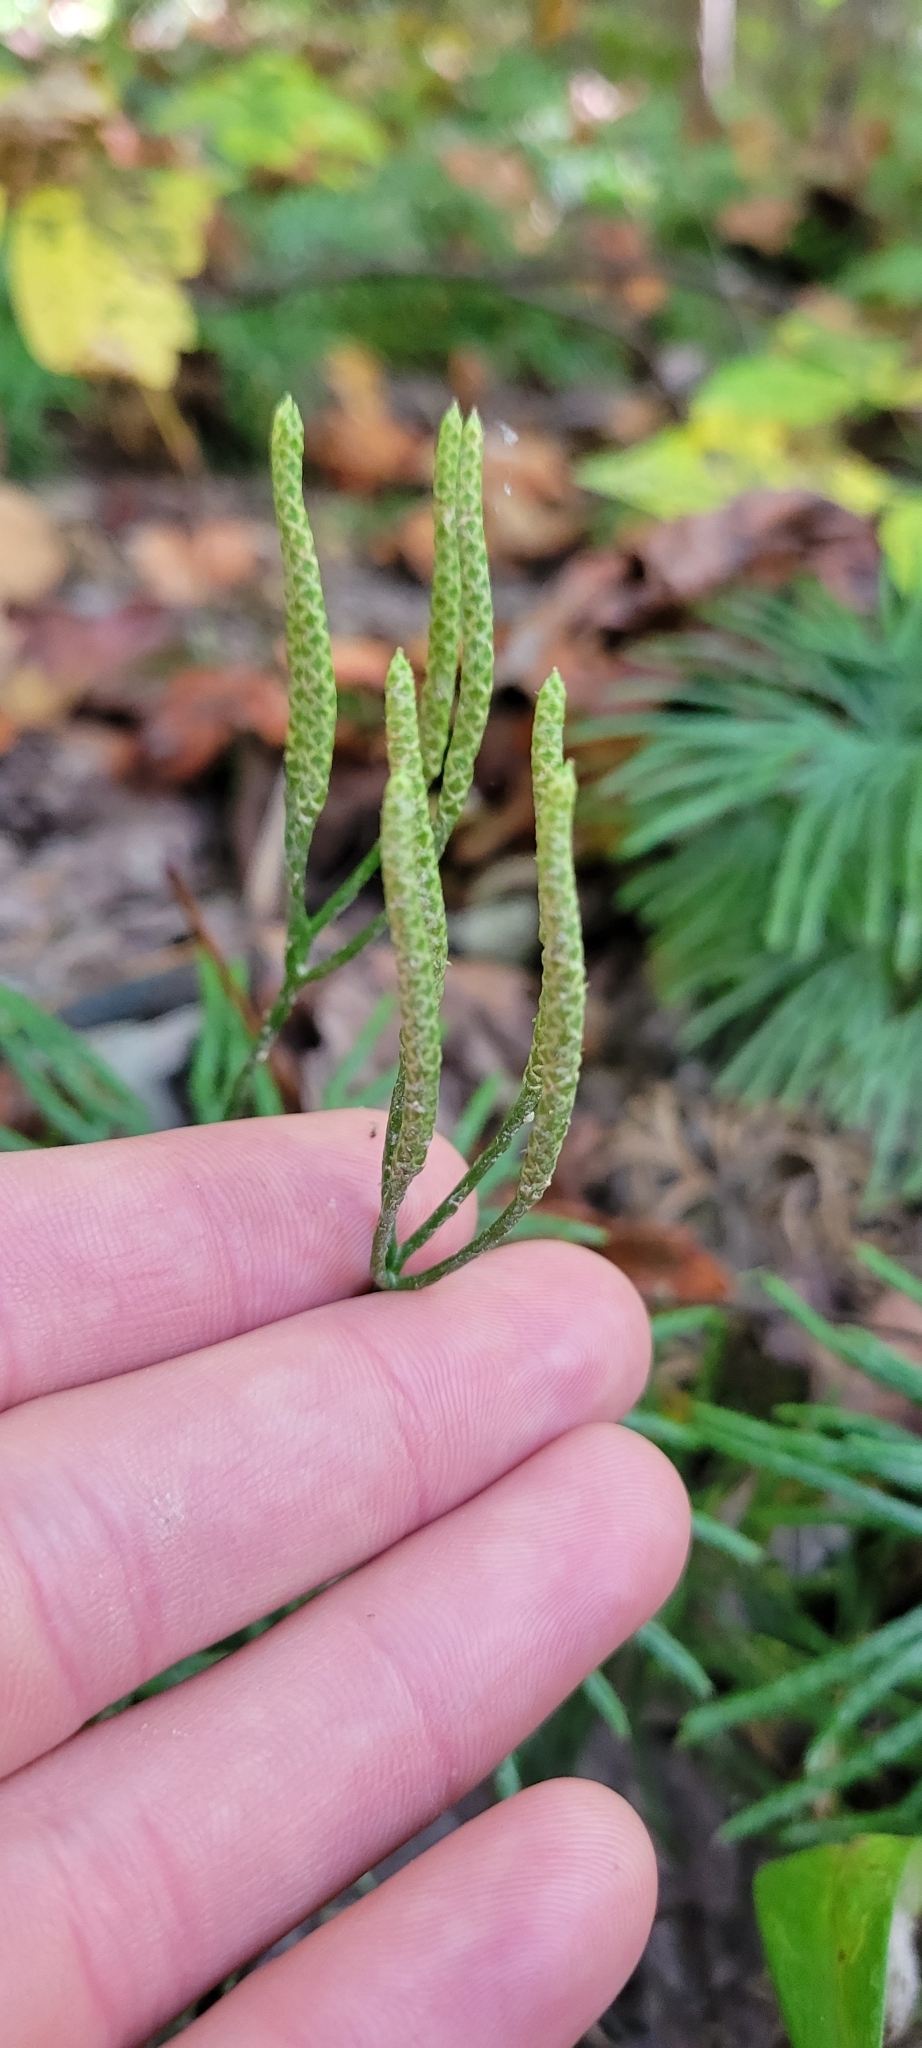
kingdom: Plantae
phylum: Tracheophyta
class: Lycopodiopsida
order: Lycopodiales
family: Lycopodiaceae
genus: Diphasiastrum
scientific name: Diphasiastrum digitatum
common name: Southern running-pine
